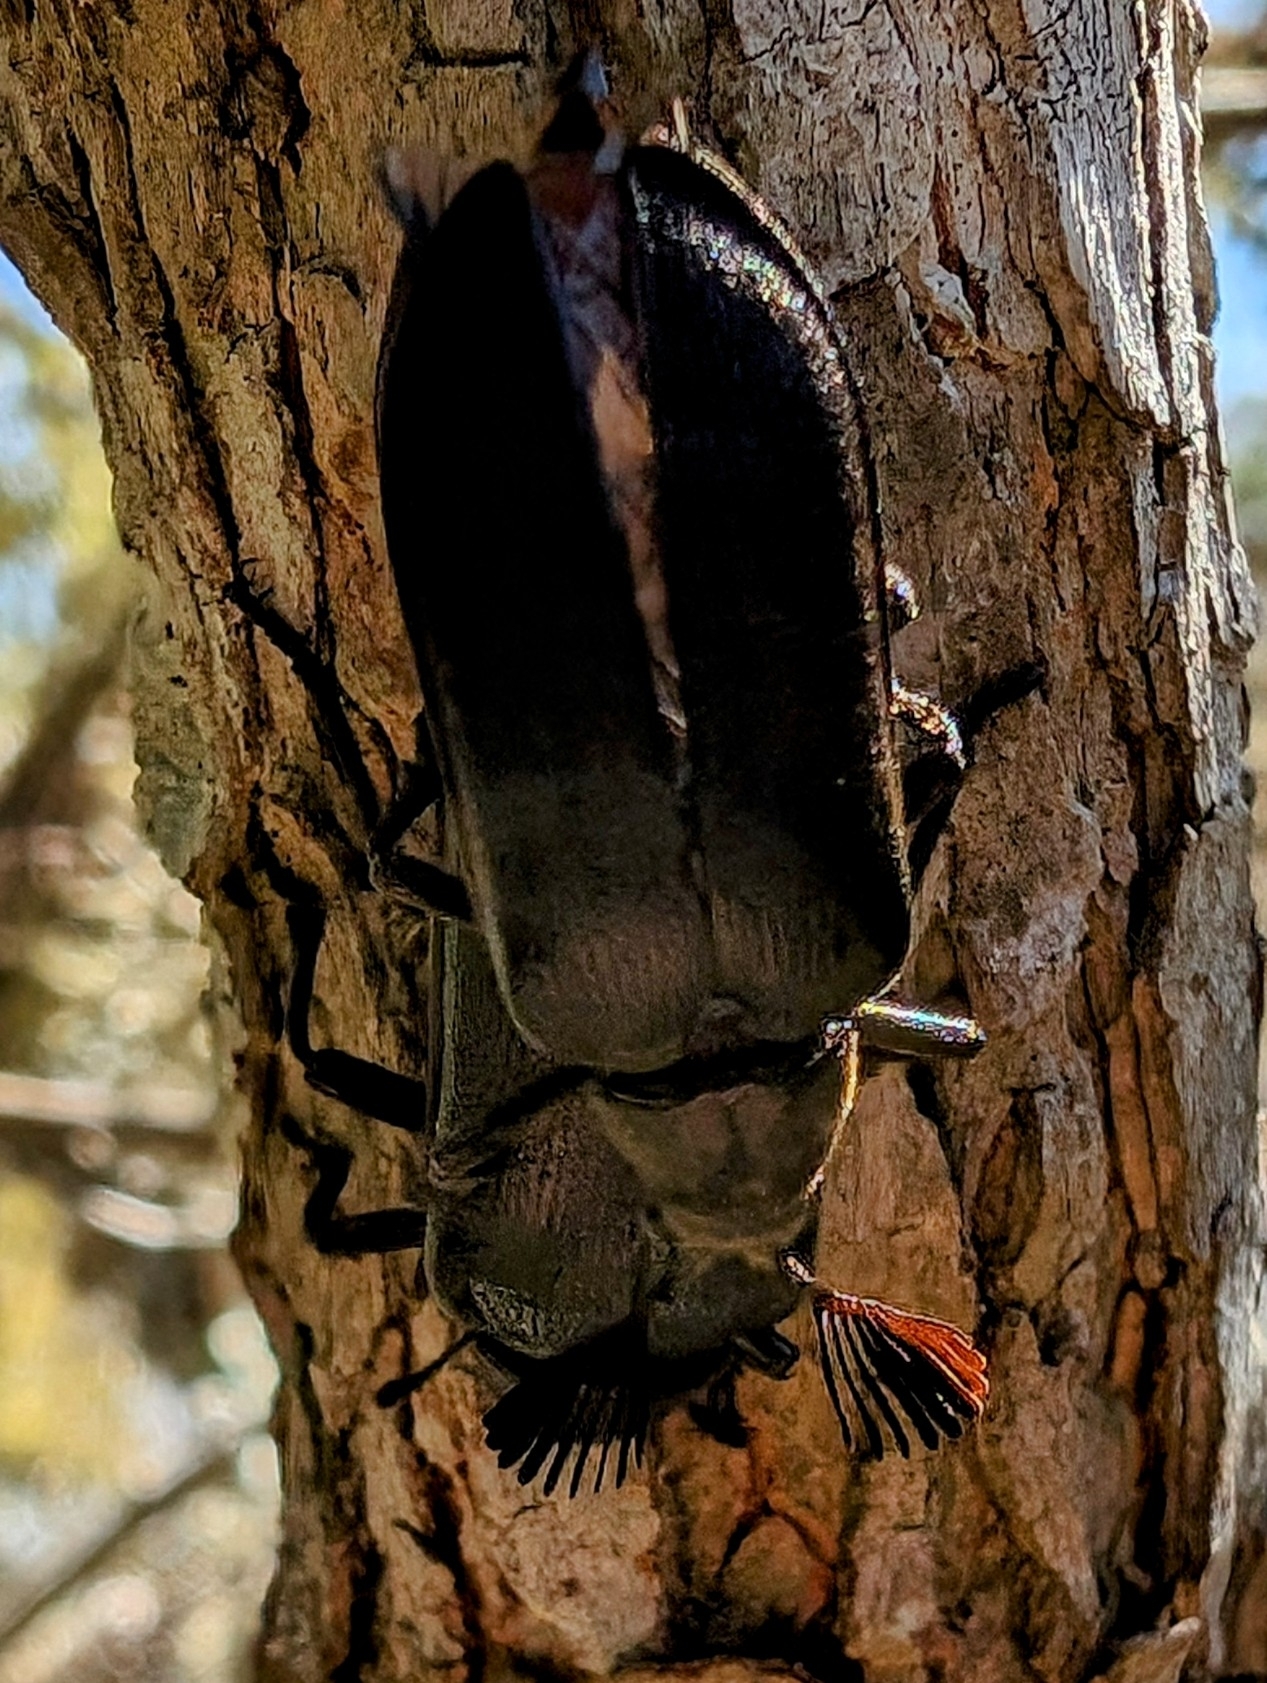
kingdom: Animalia
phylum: Arthropoda
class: Insecta
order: Coleoptera
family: Rhipiceridae
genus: Sandalus
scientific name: Sandalus niger
